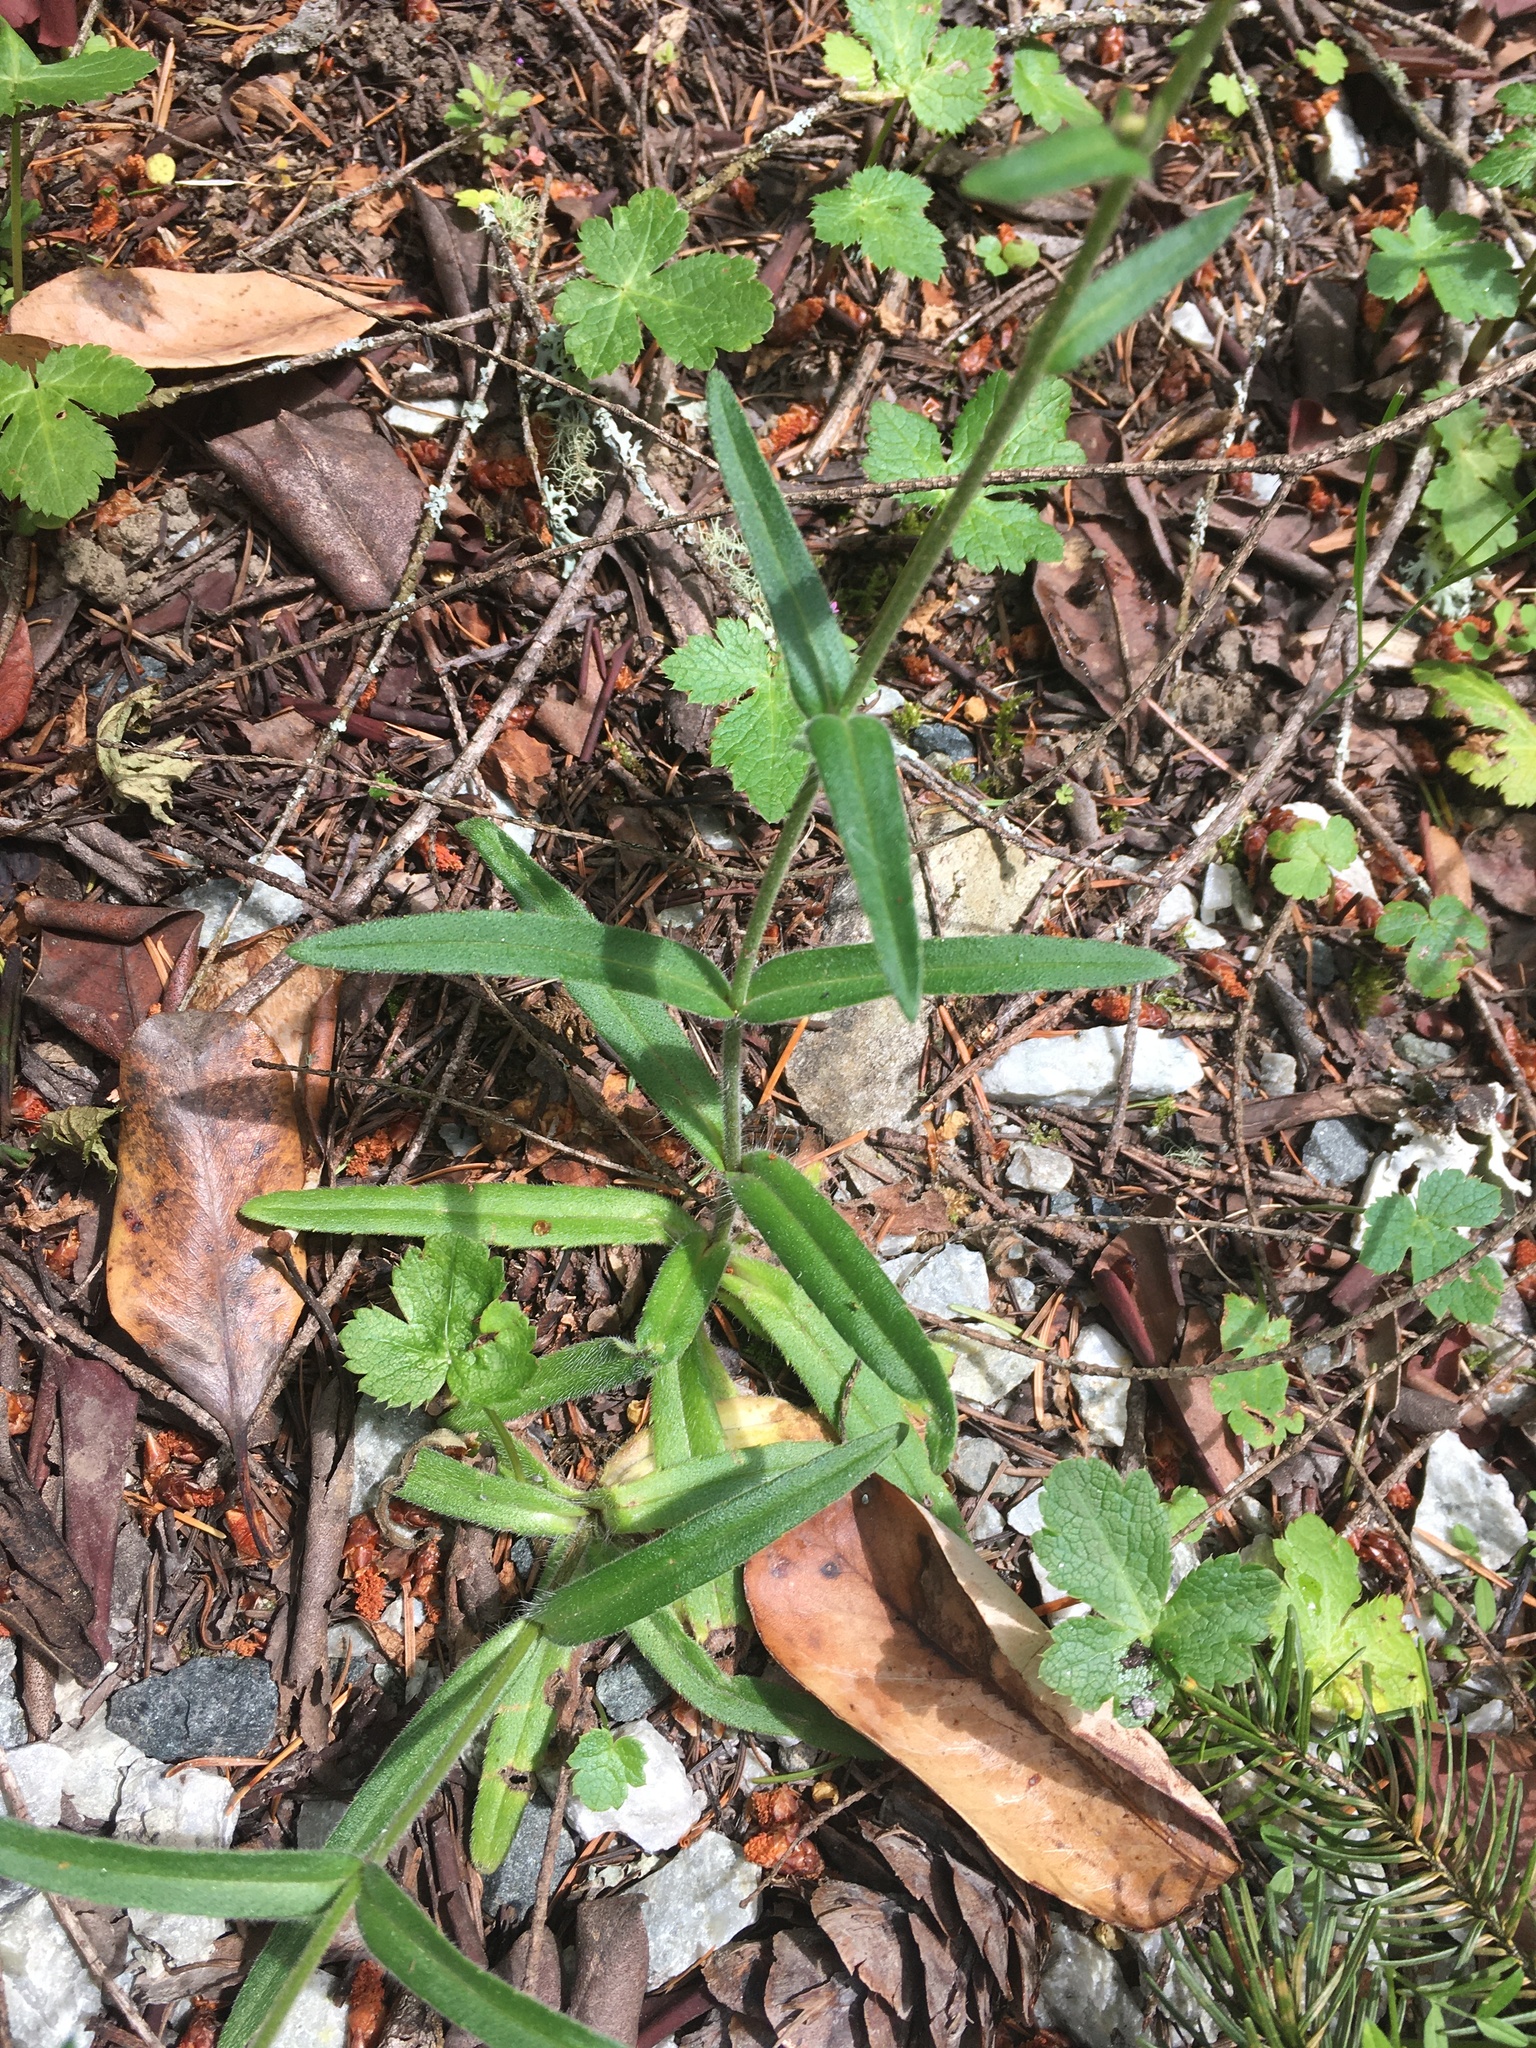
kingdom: Plantae
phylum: Tracheophyta
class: Magnoliopsida
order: Asterales
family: Asteraceae
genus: Anisocarpus
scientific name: Anisocarpus madioides
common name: Woodland madia
